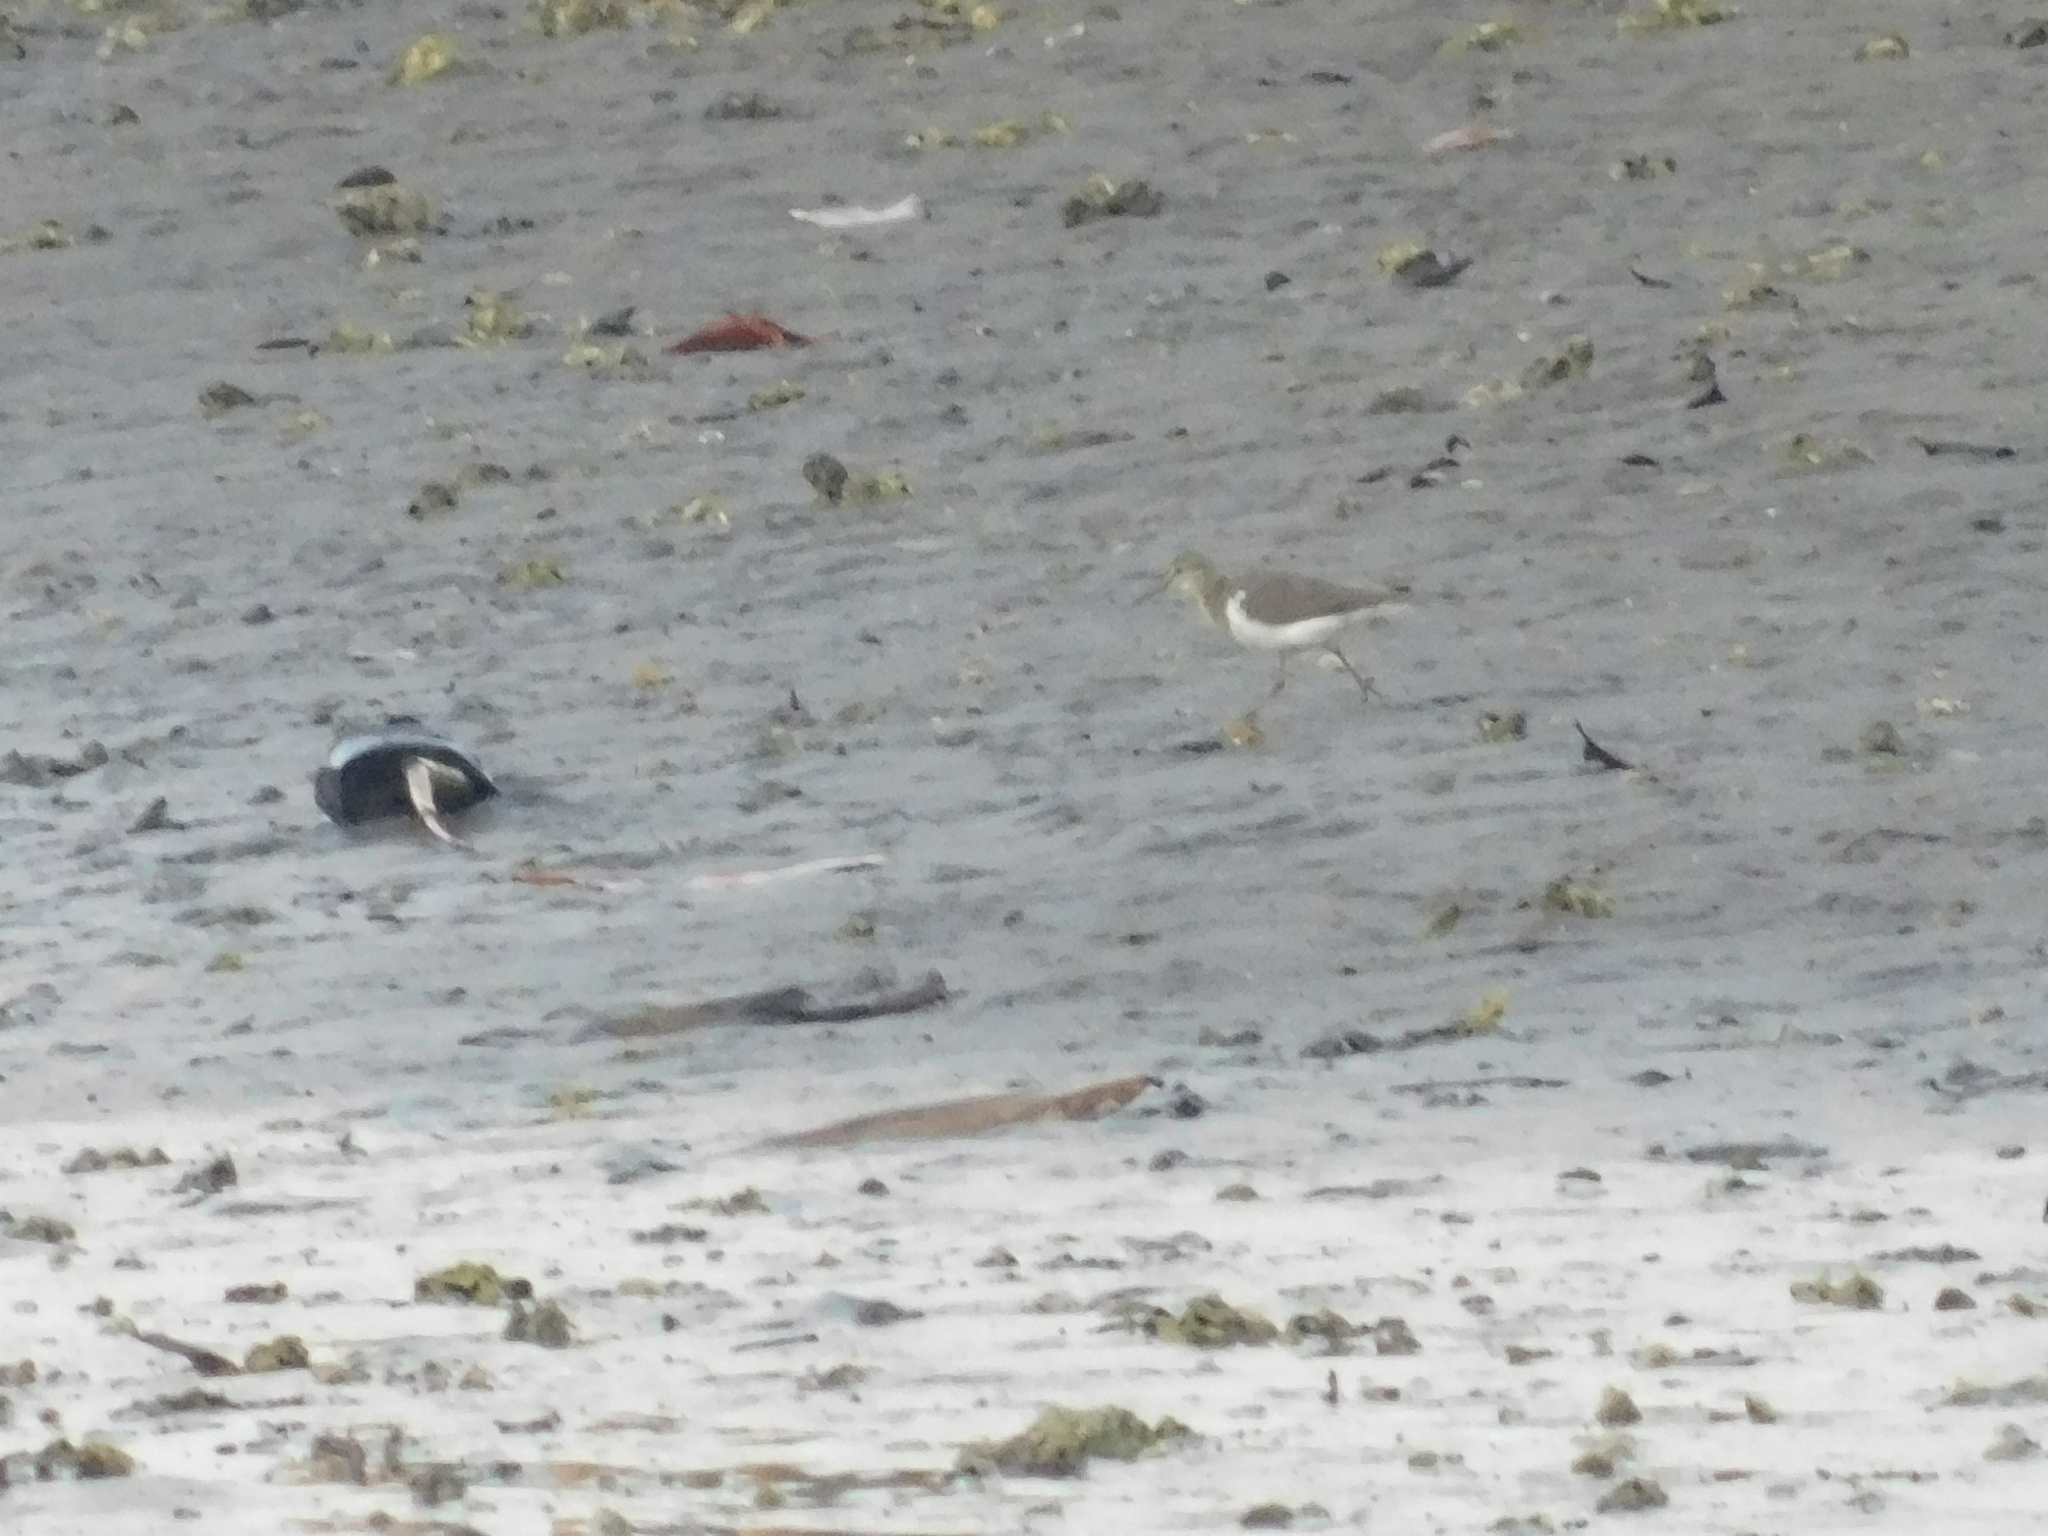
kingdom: Animalia
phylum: Chordata
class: Aves
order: Charadriiformes
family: Scolopacidae
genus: Actitis
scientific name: Actitis hypoleucos
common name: Common sandpiper
